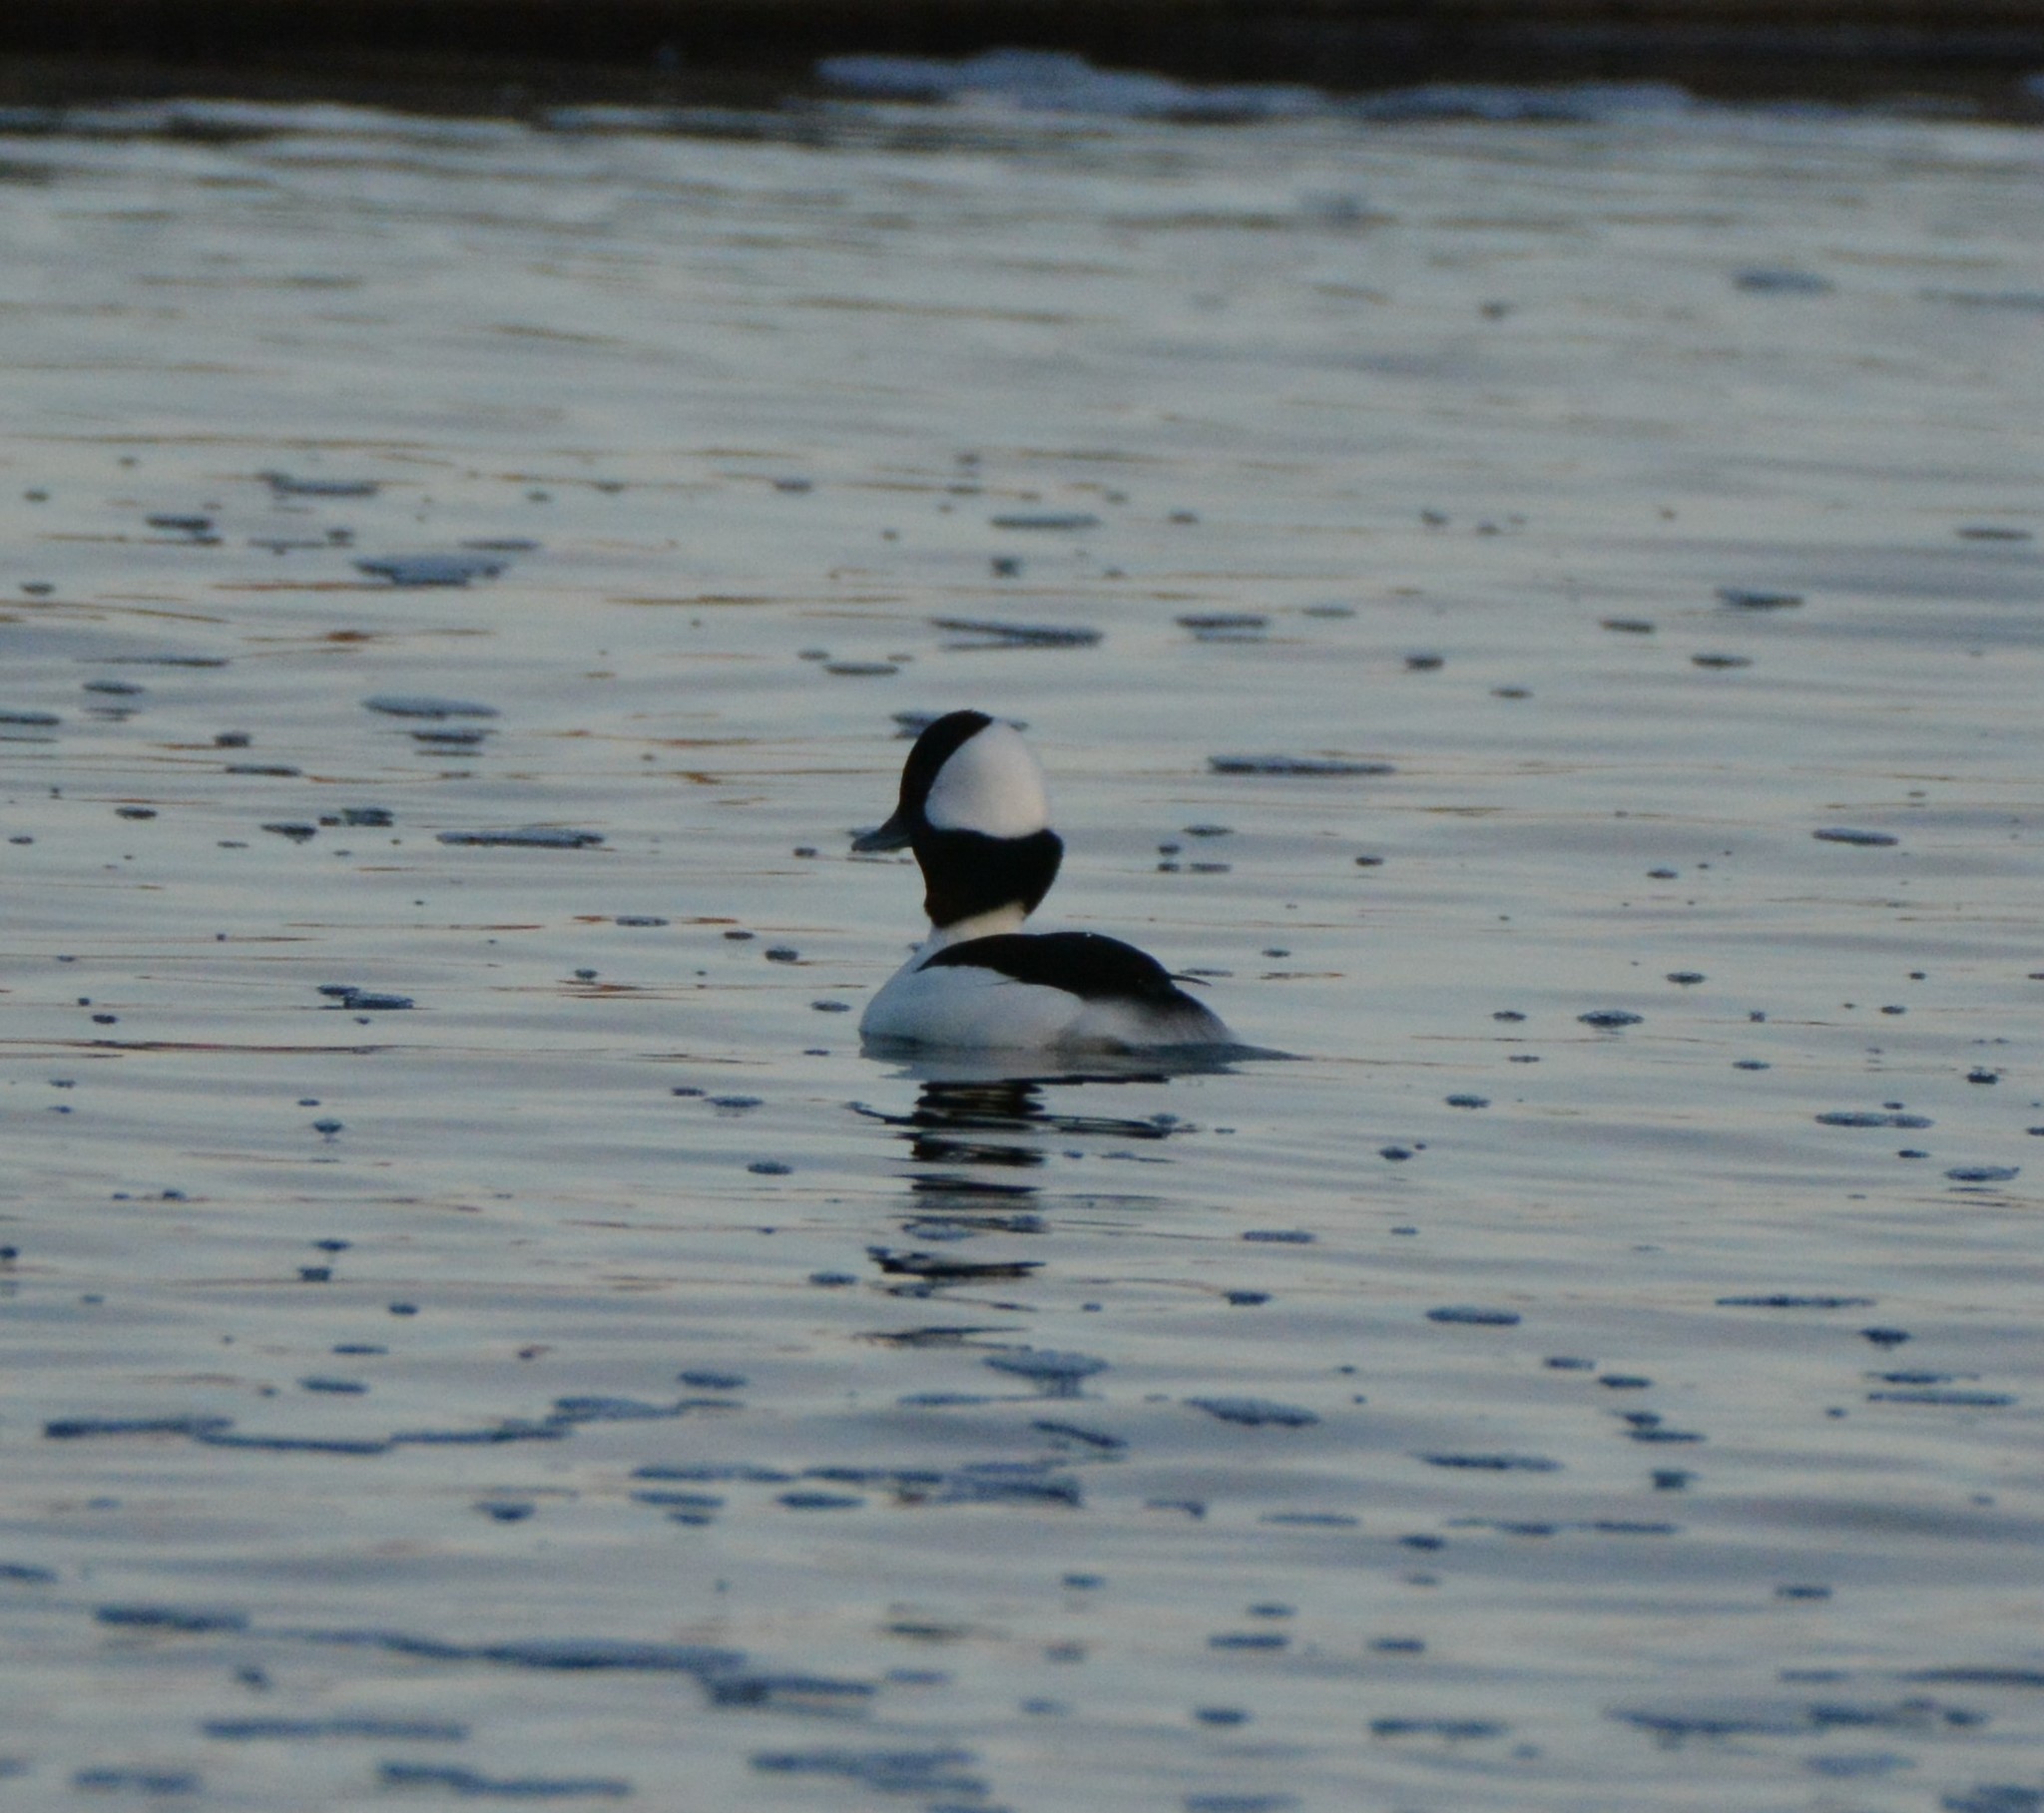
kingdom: Animalia
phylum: Chordata
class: Aves
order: Anseriformes
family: Anatidae
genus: Bucephala
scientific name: Bucephala albeola
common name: Bufflehead
